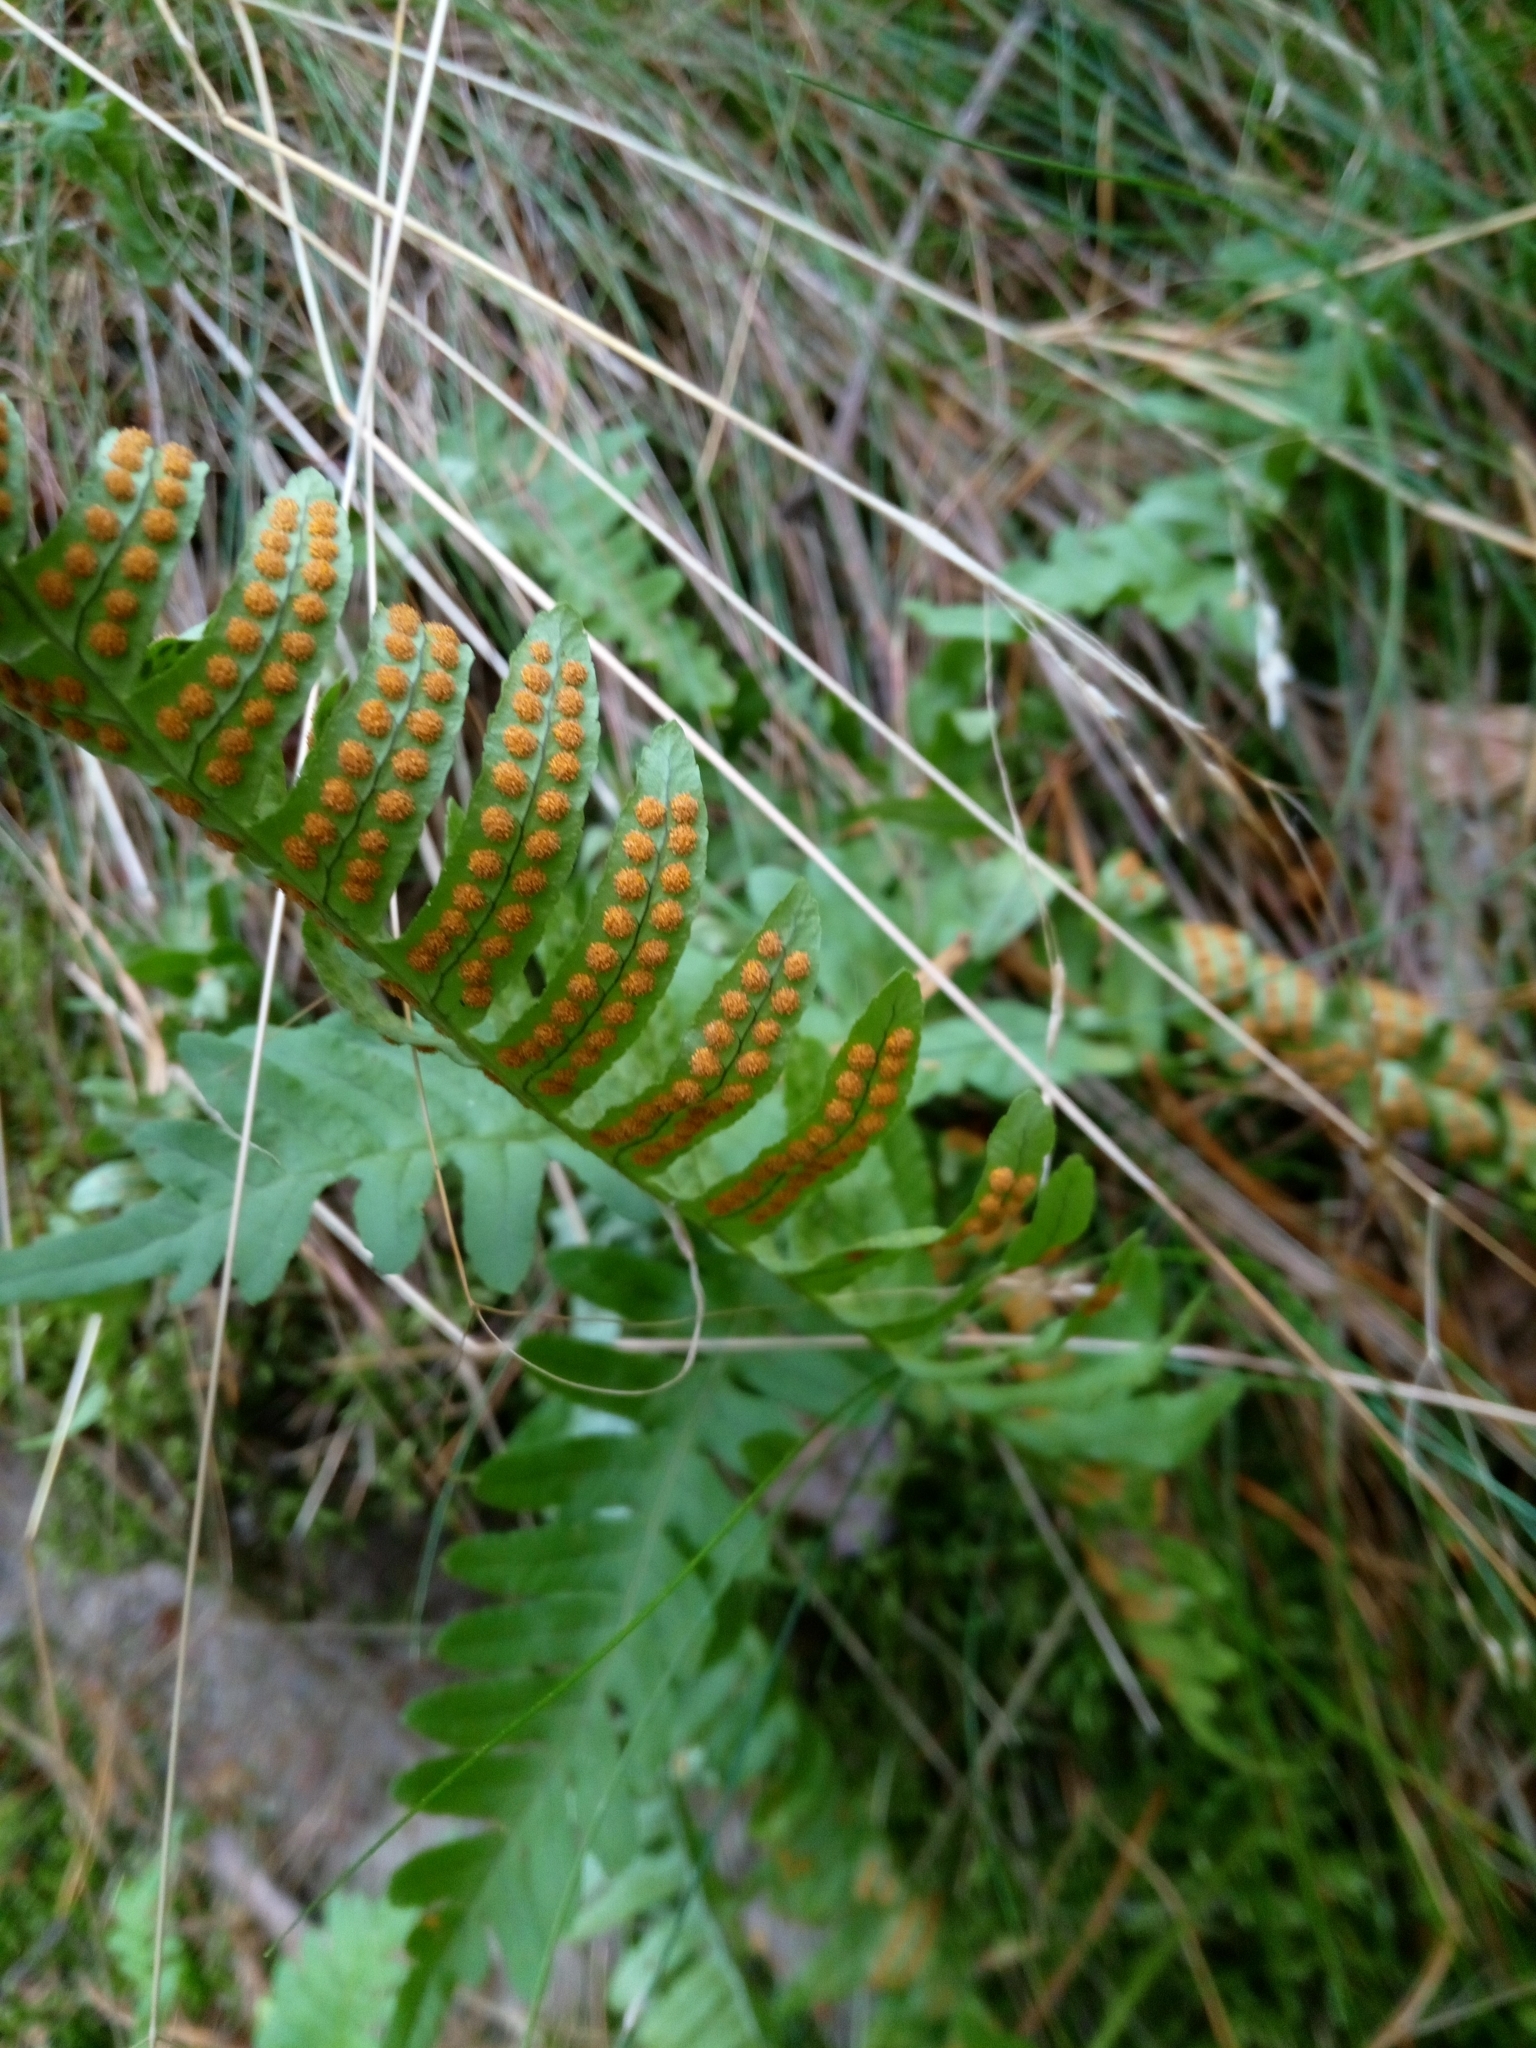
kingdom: Plantae
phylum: Tracheophyta
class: Polypodiopsida
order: Polypodiales
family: Polypodiaceae
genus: Polypodium
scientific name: Polypodium vulgare
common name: Common polypody
